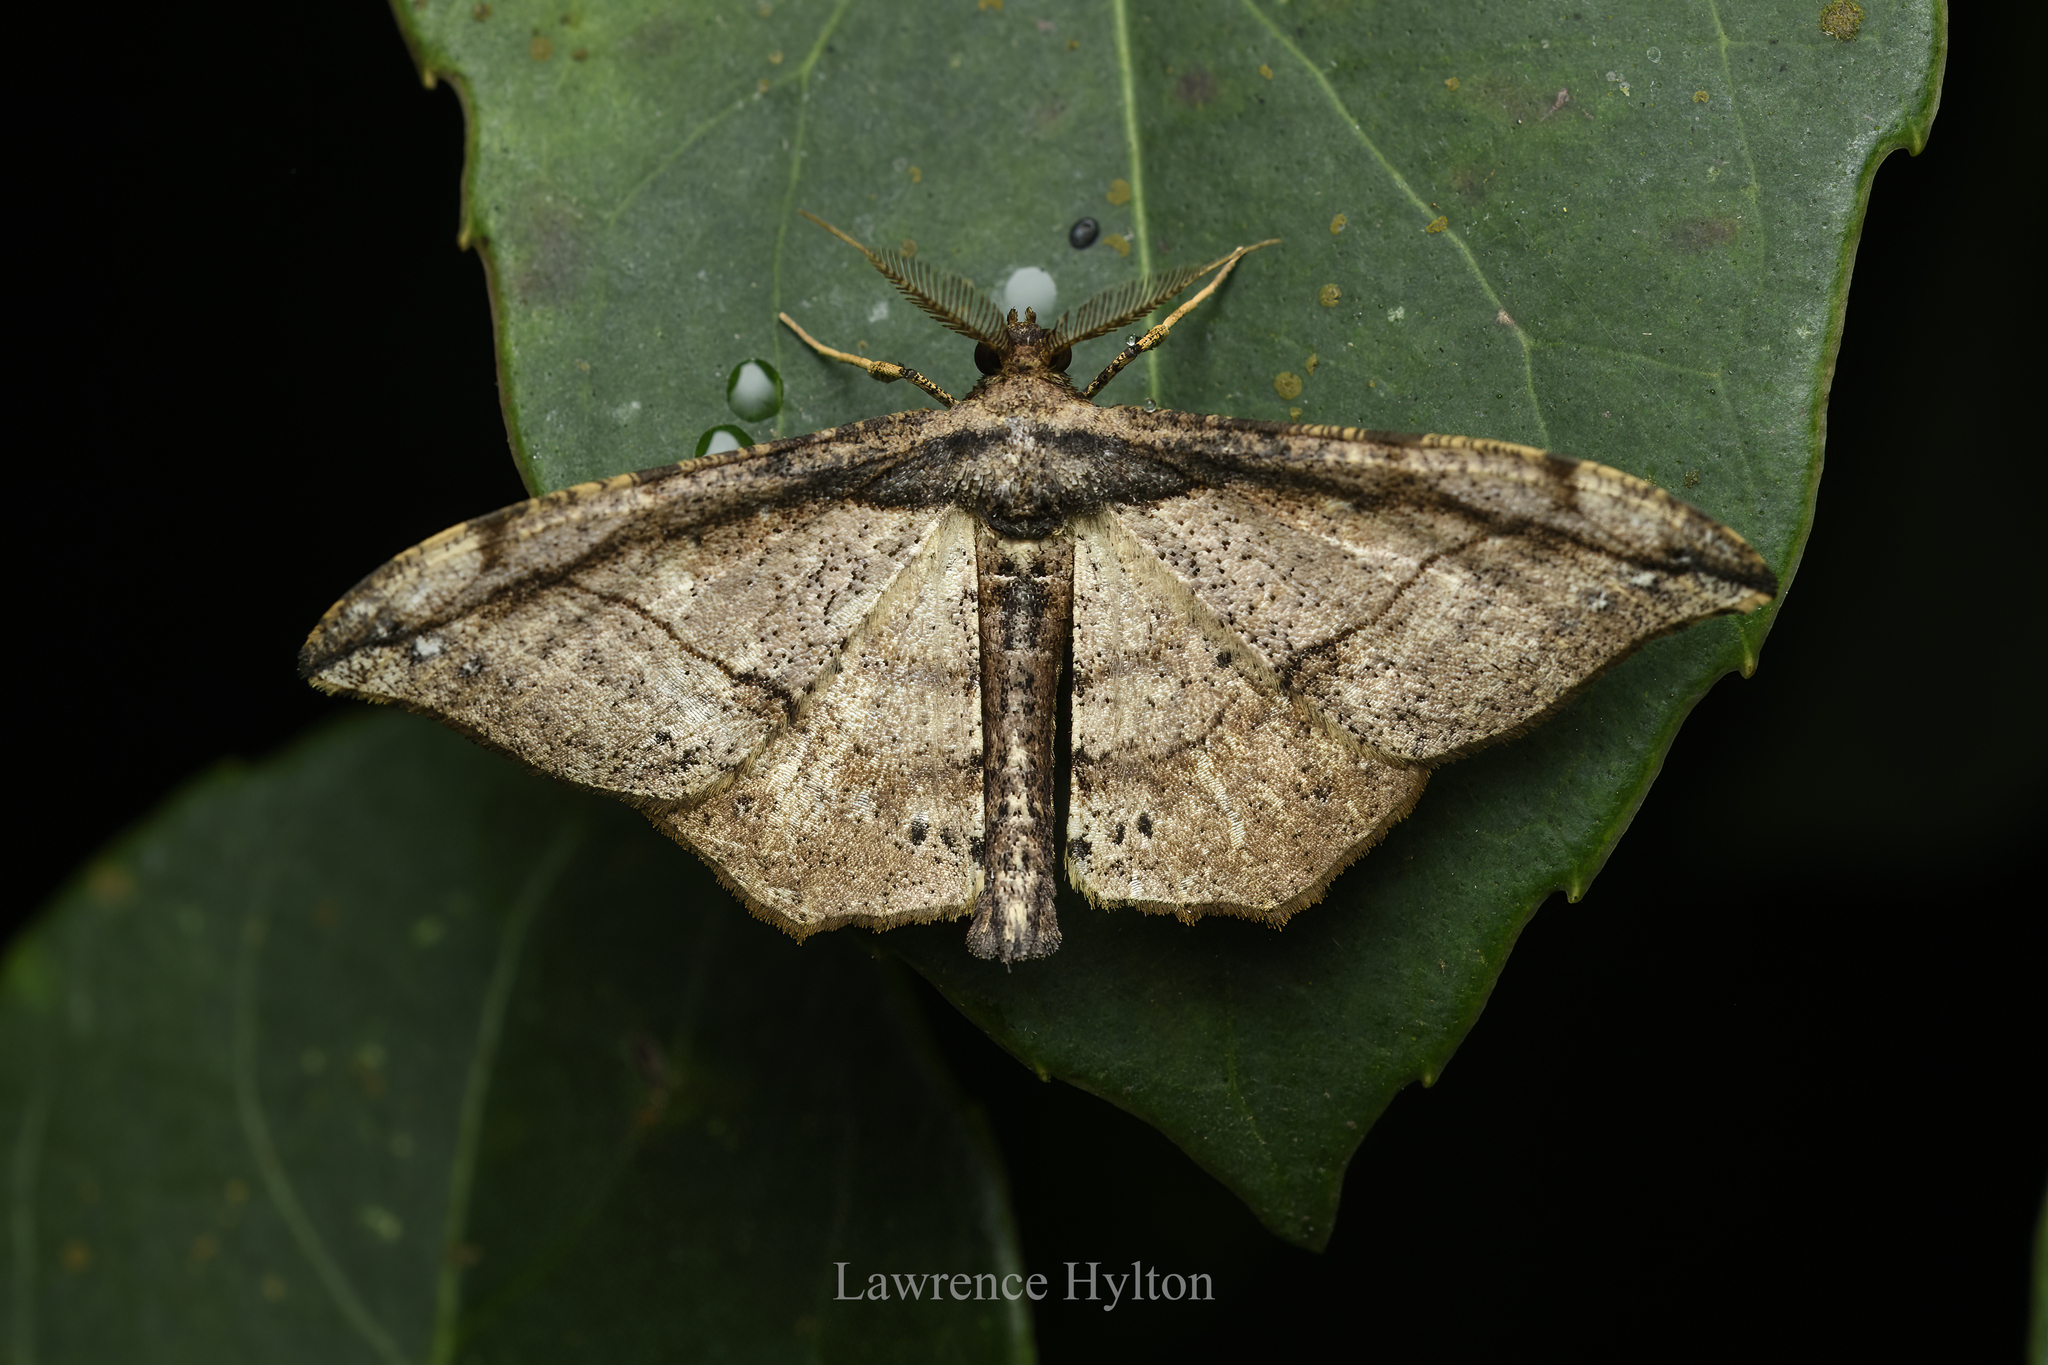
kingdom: Animalia
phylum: Arthropoda
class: Insecta
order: Lepidoptera
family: Geometridae
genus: Hyposidra
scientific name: Hyposidra infixaria
